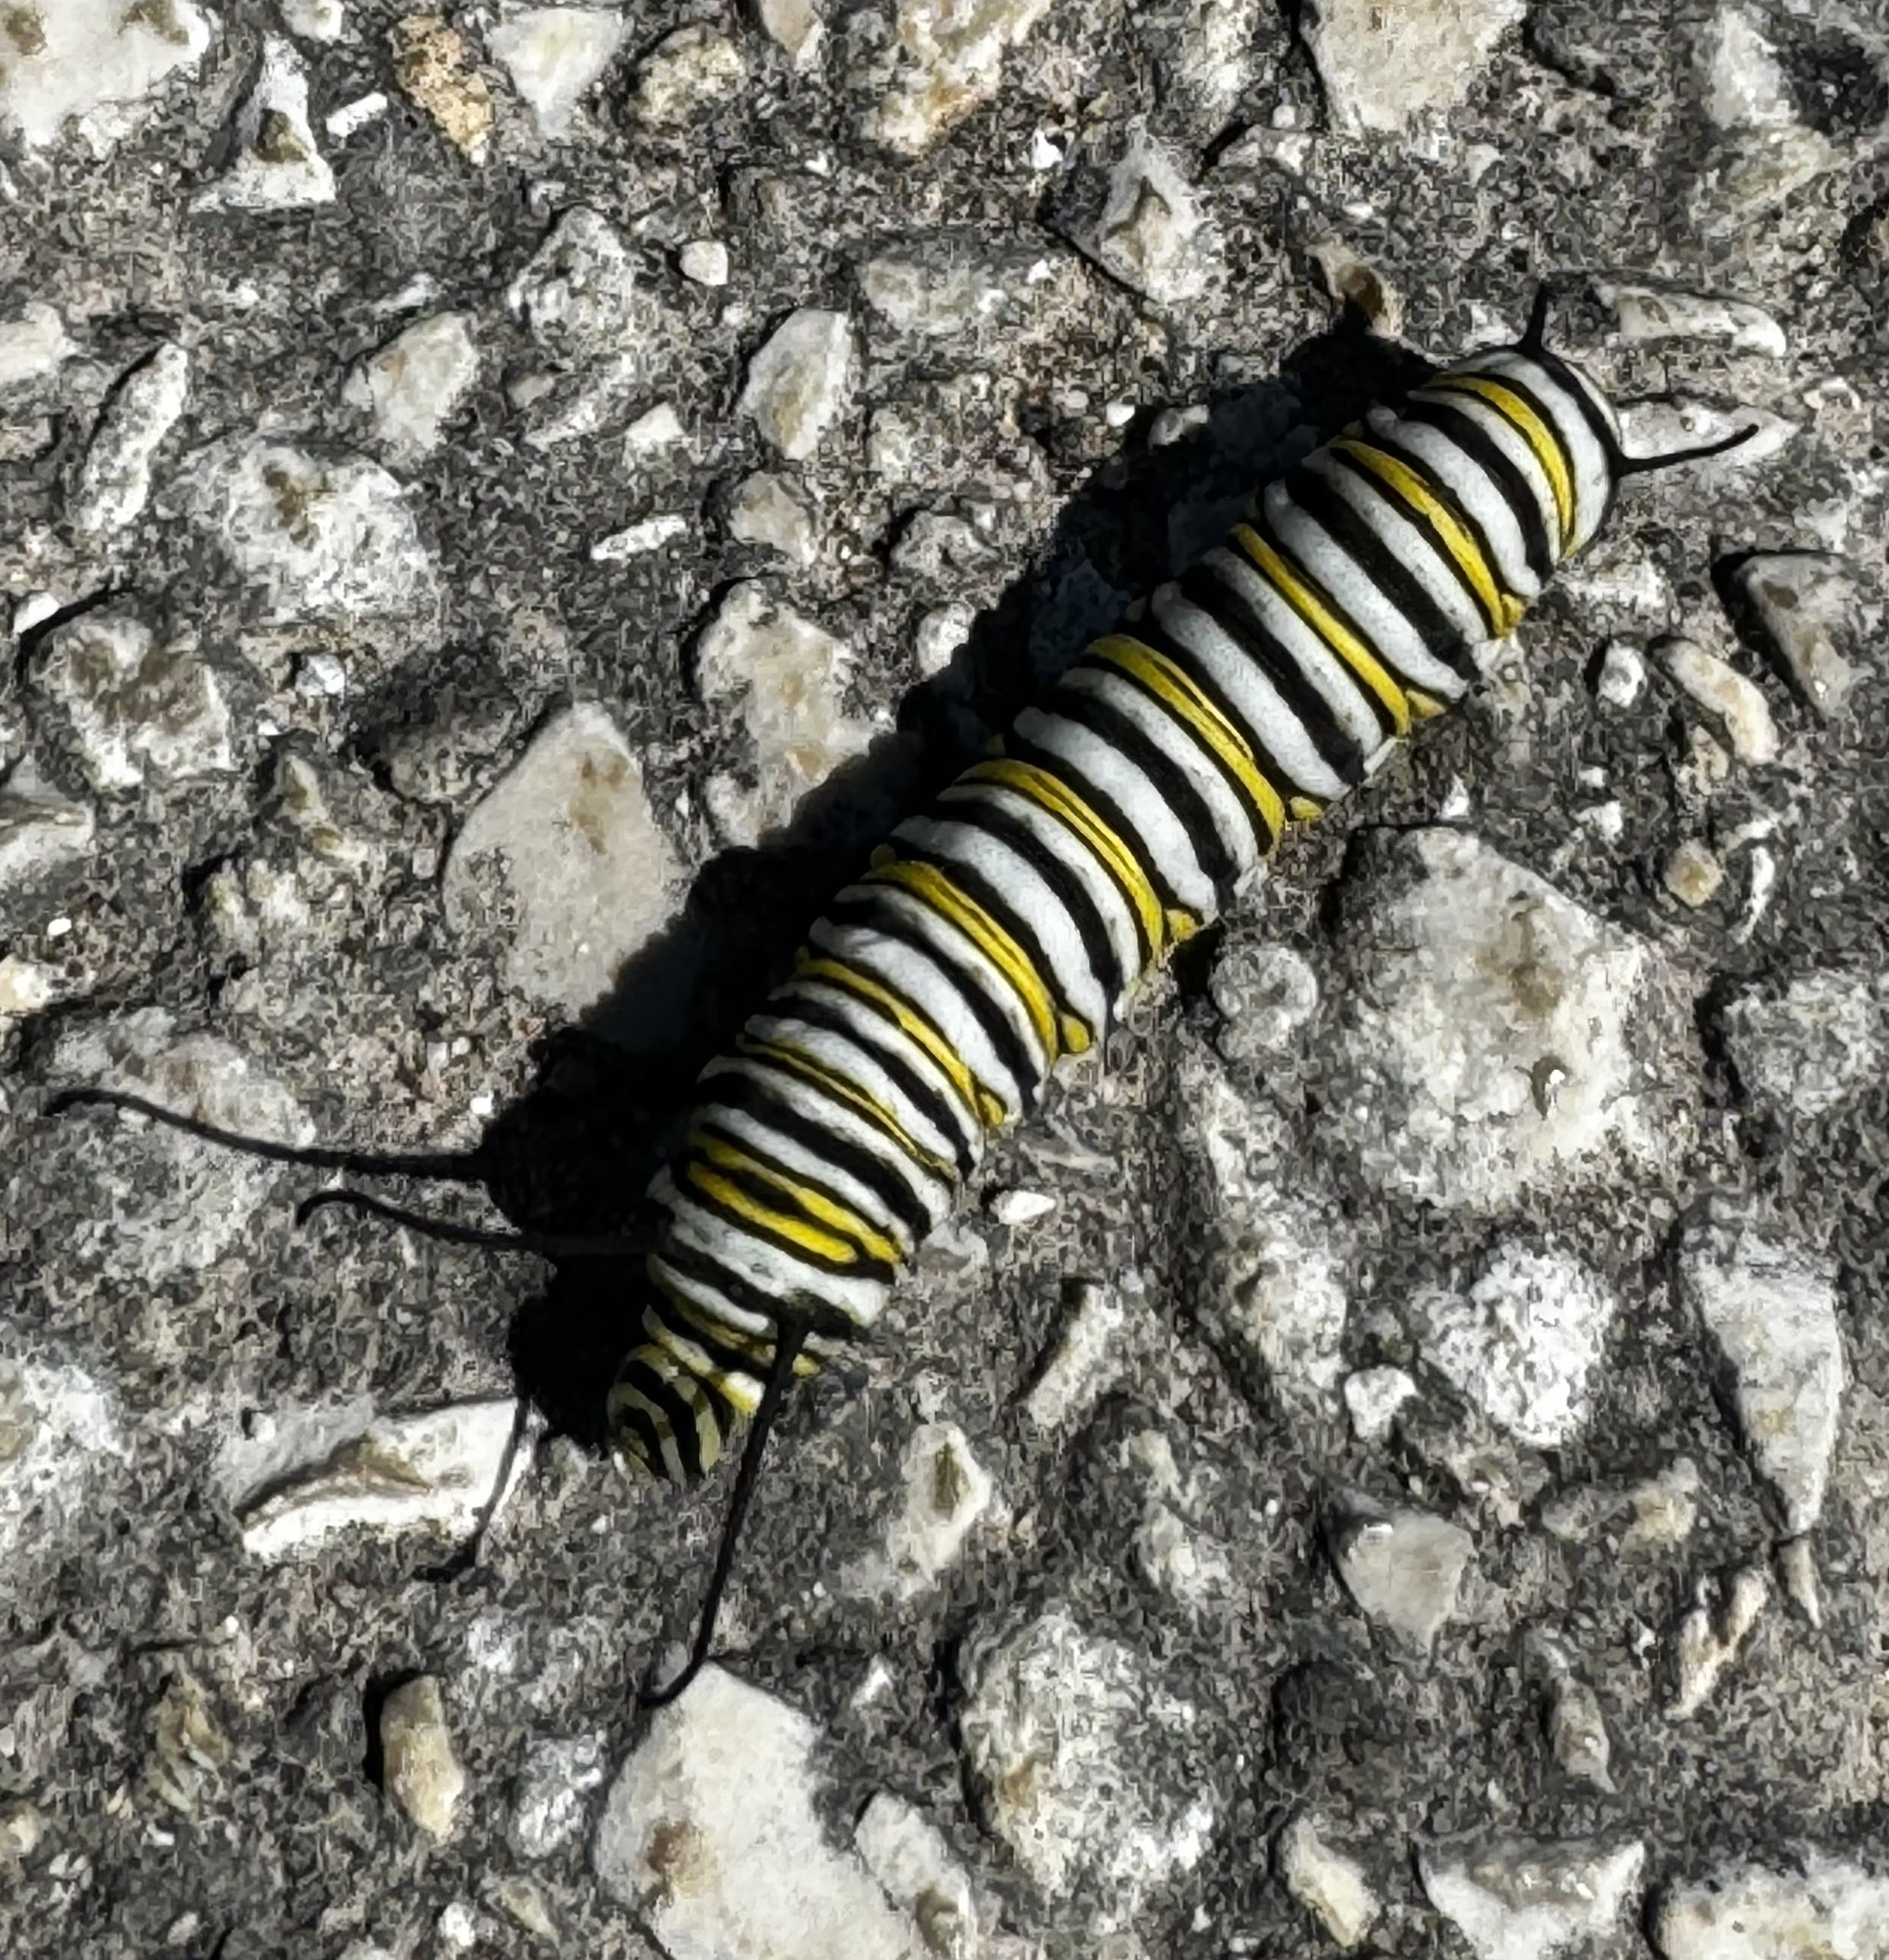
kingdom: Animalia
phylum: Arthropoda
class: Insecta
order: Lepidoptera
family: Nymphalidae
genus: Danaus
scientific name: Danaus plexippus
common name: Monarch
